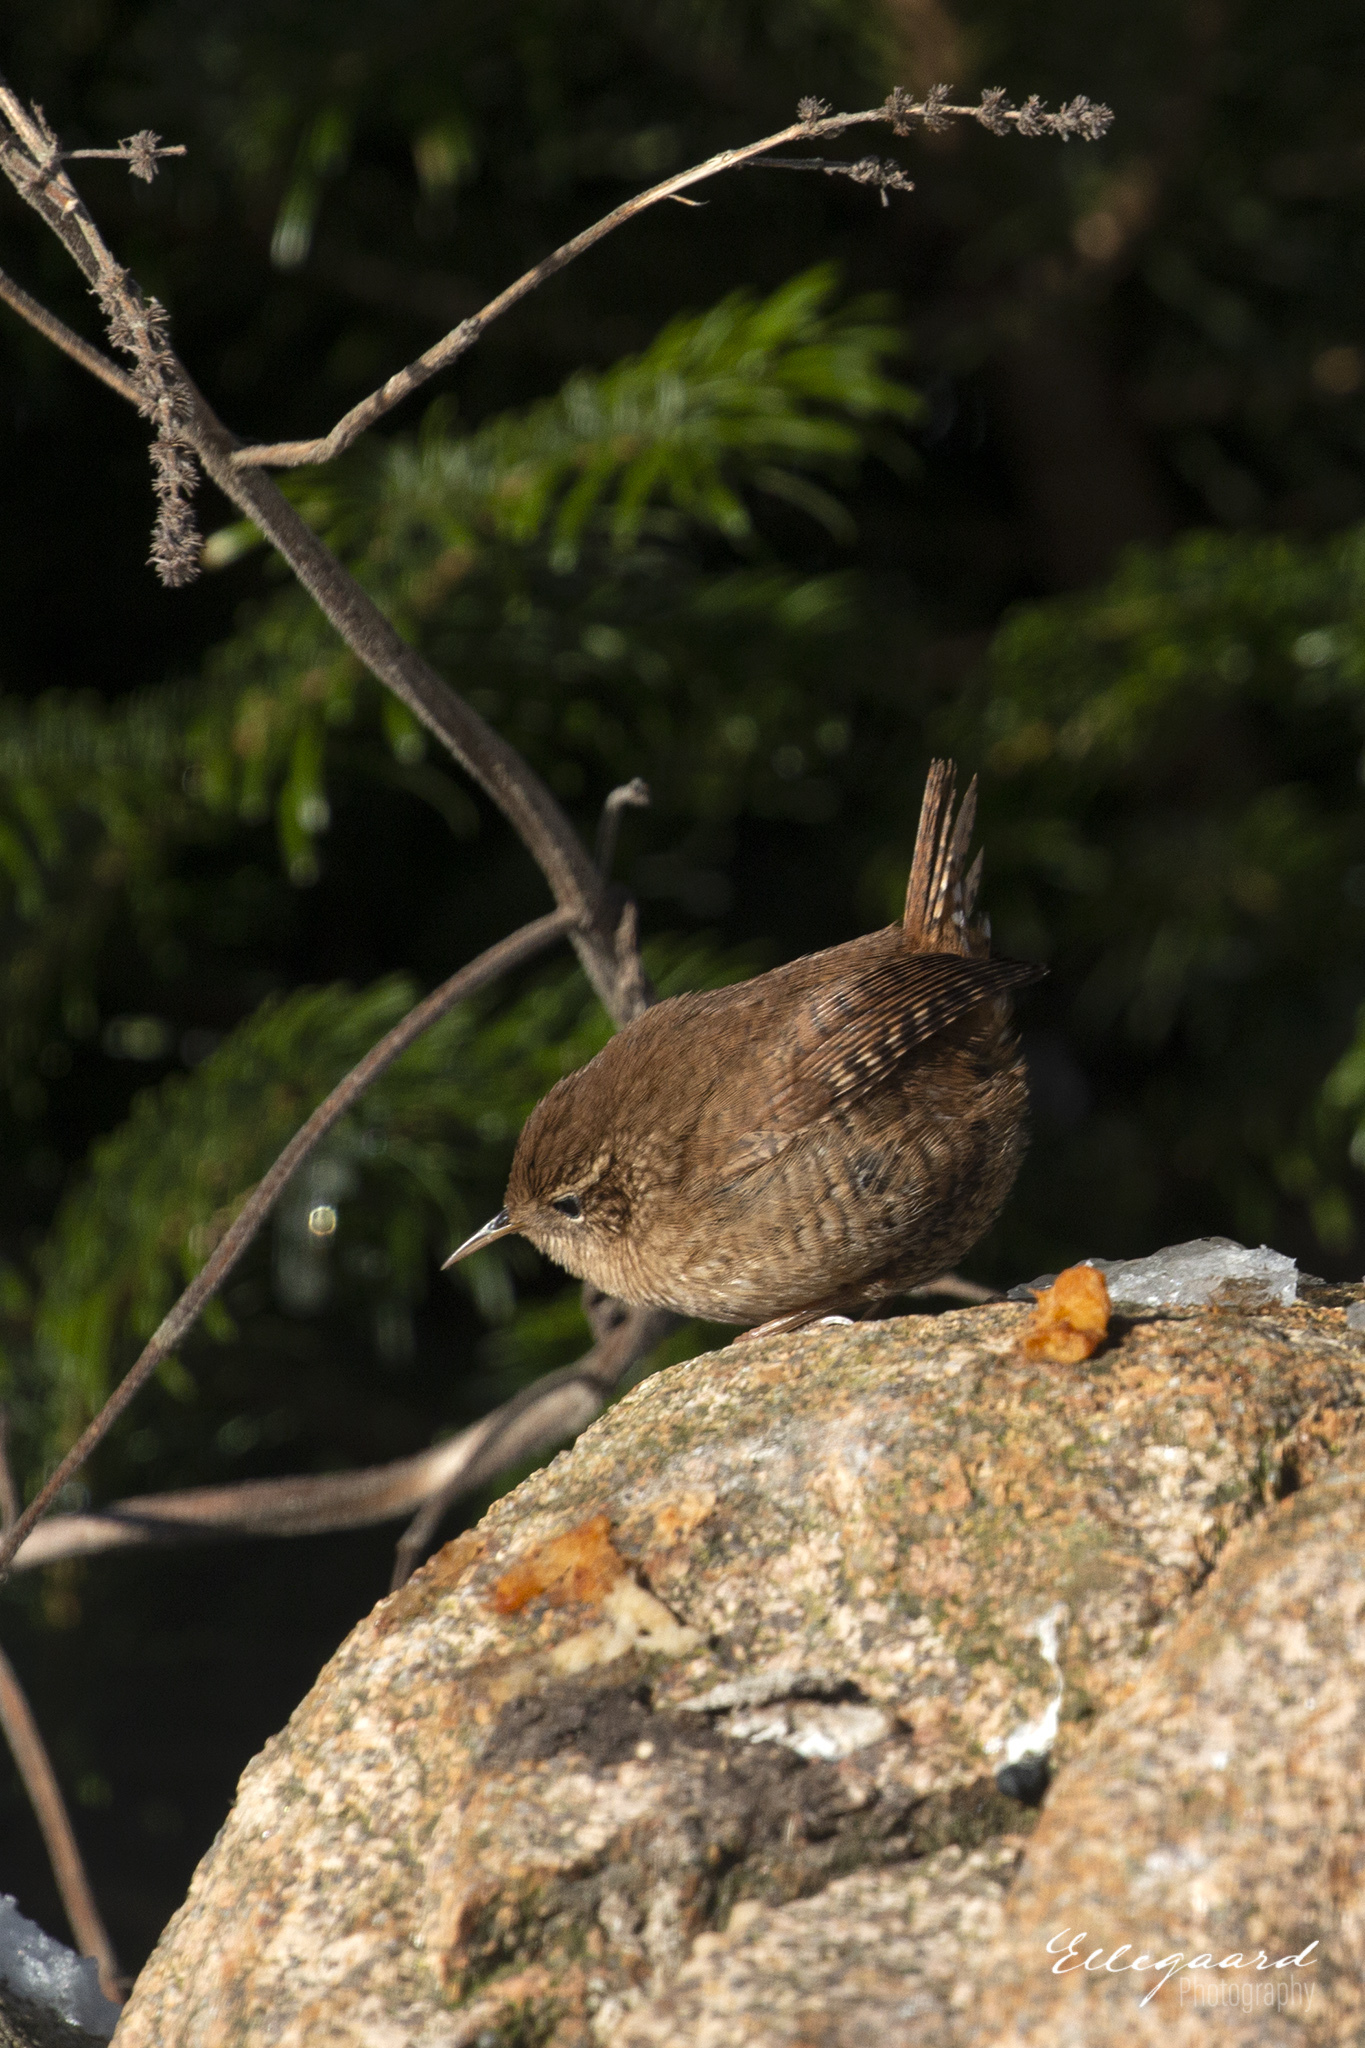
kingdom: Animalia
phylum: Chordata
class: Aves
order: Passeriformes
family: Troglodytidae
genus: Troglodytes
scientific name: Troglodytes troglodytes
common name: Eurasian wren
